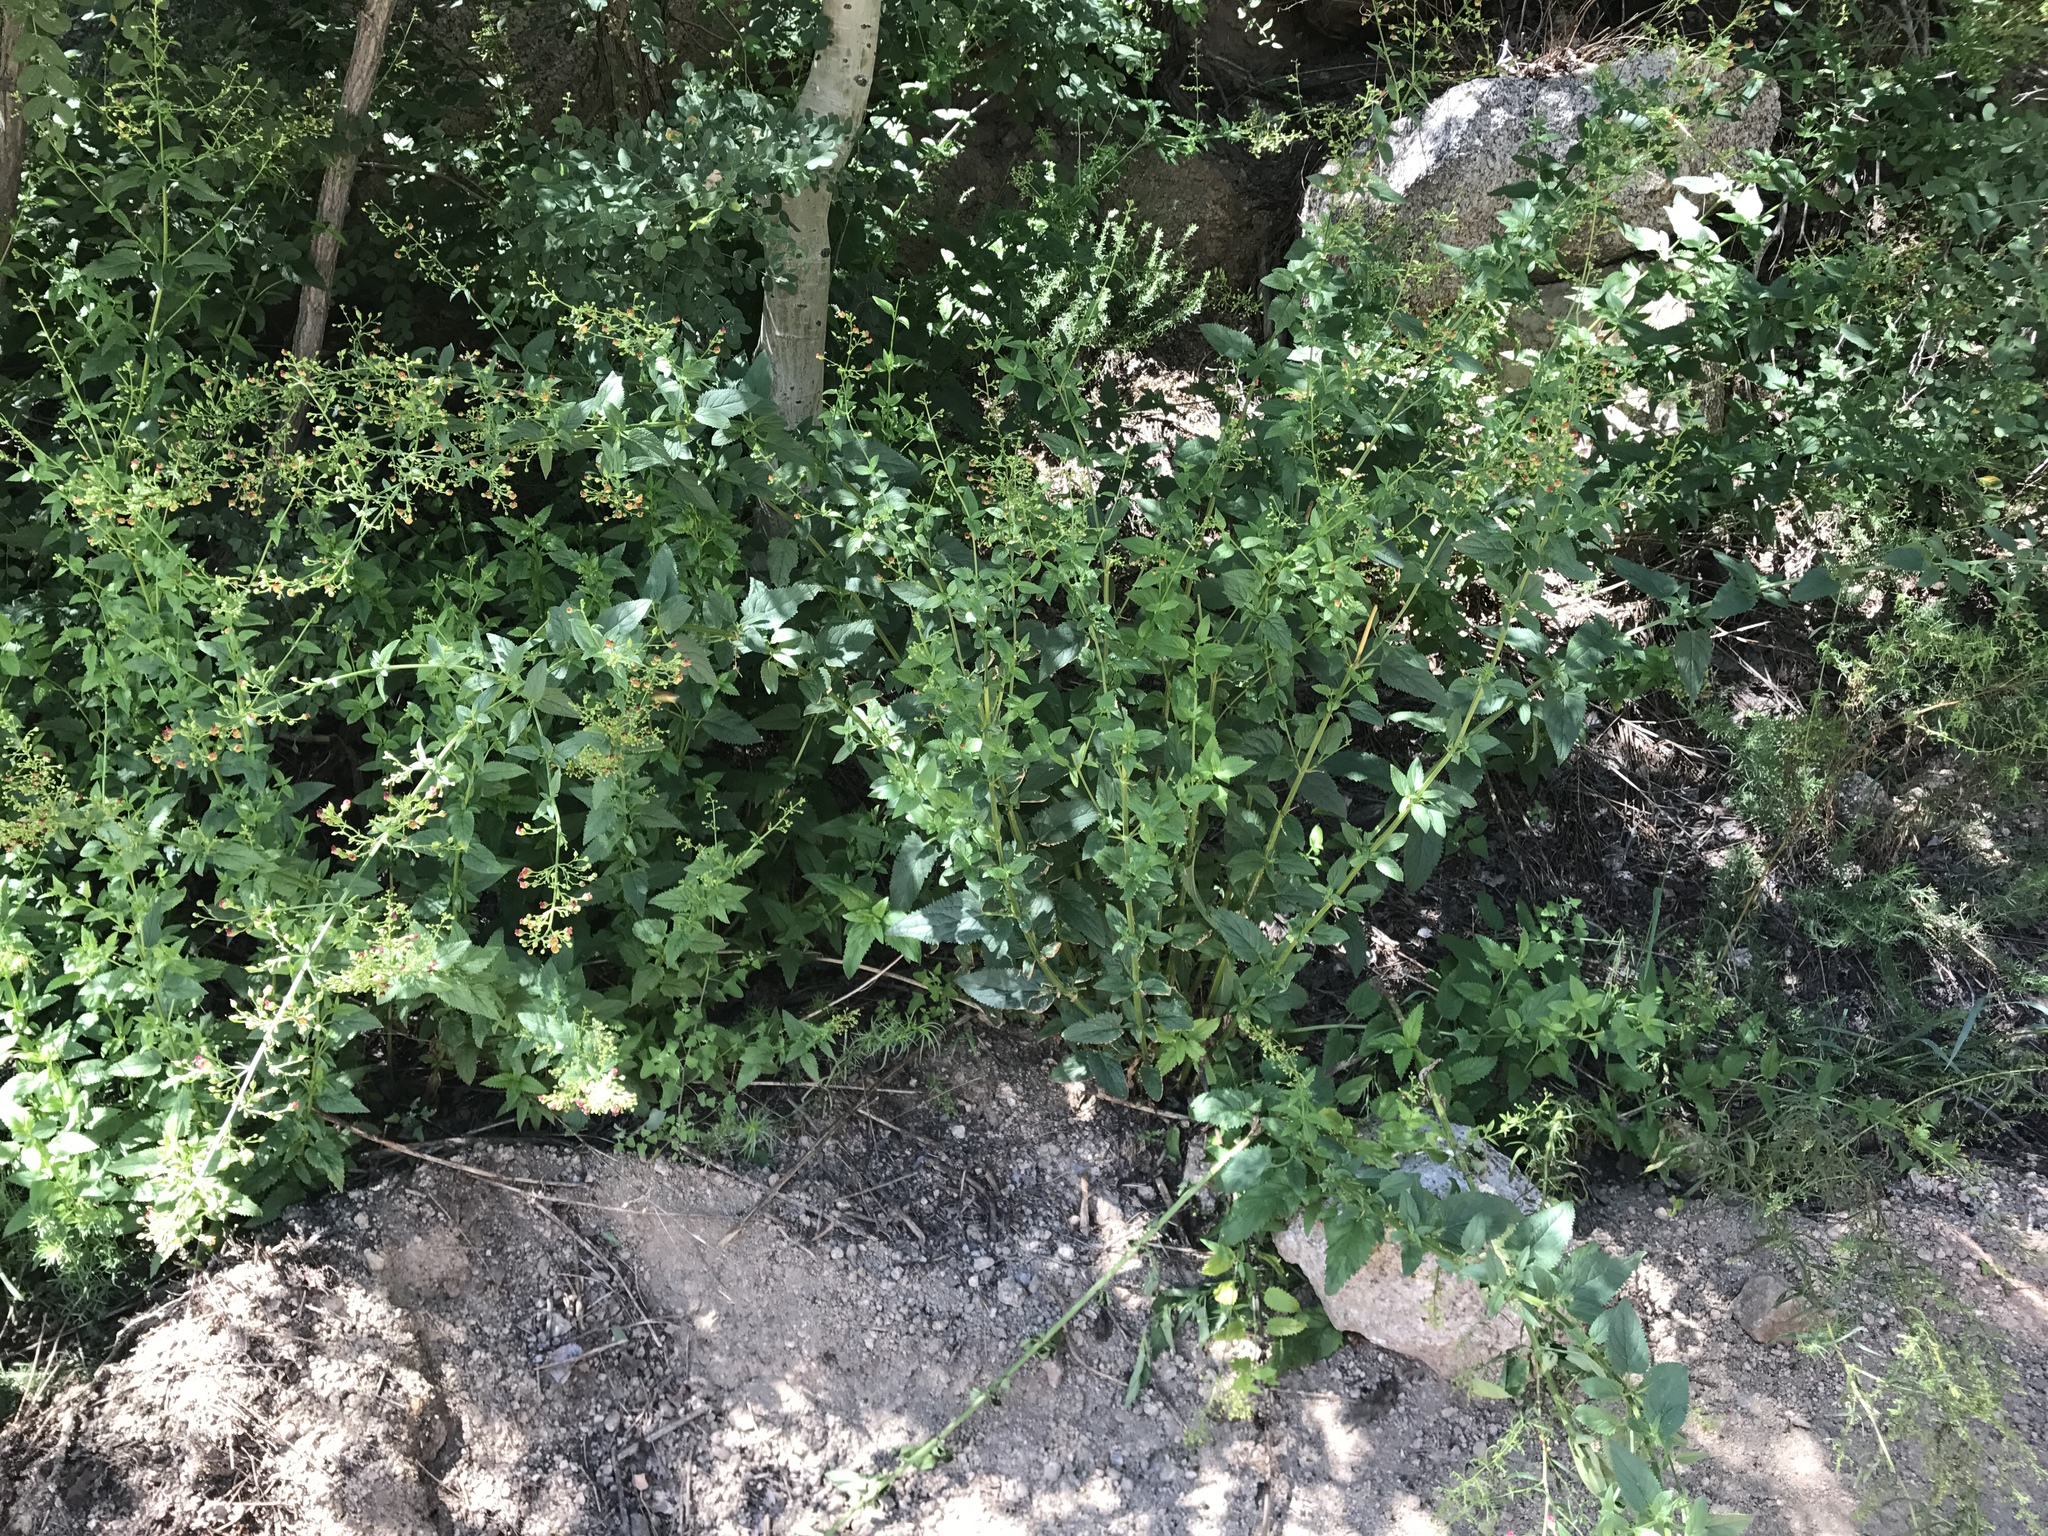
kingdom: Plantae
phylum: Tracheophyta
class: Magnoliopsida
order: Lamiales
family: Scrophulariaceae
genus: Scrophularia
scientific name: Scrophularia parviflora
